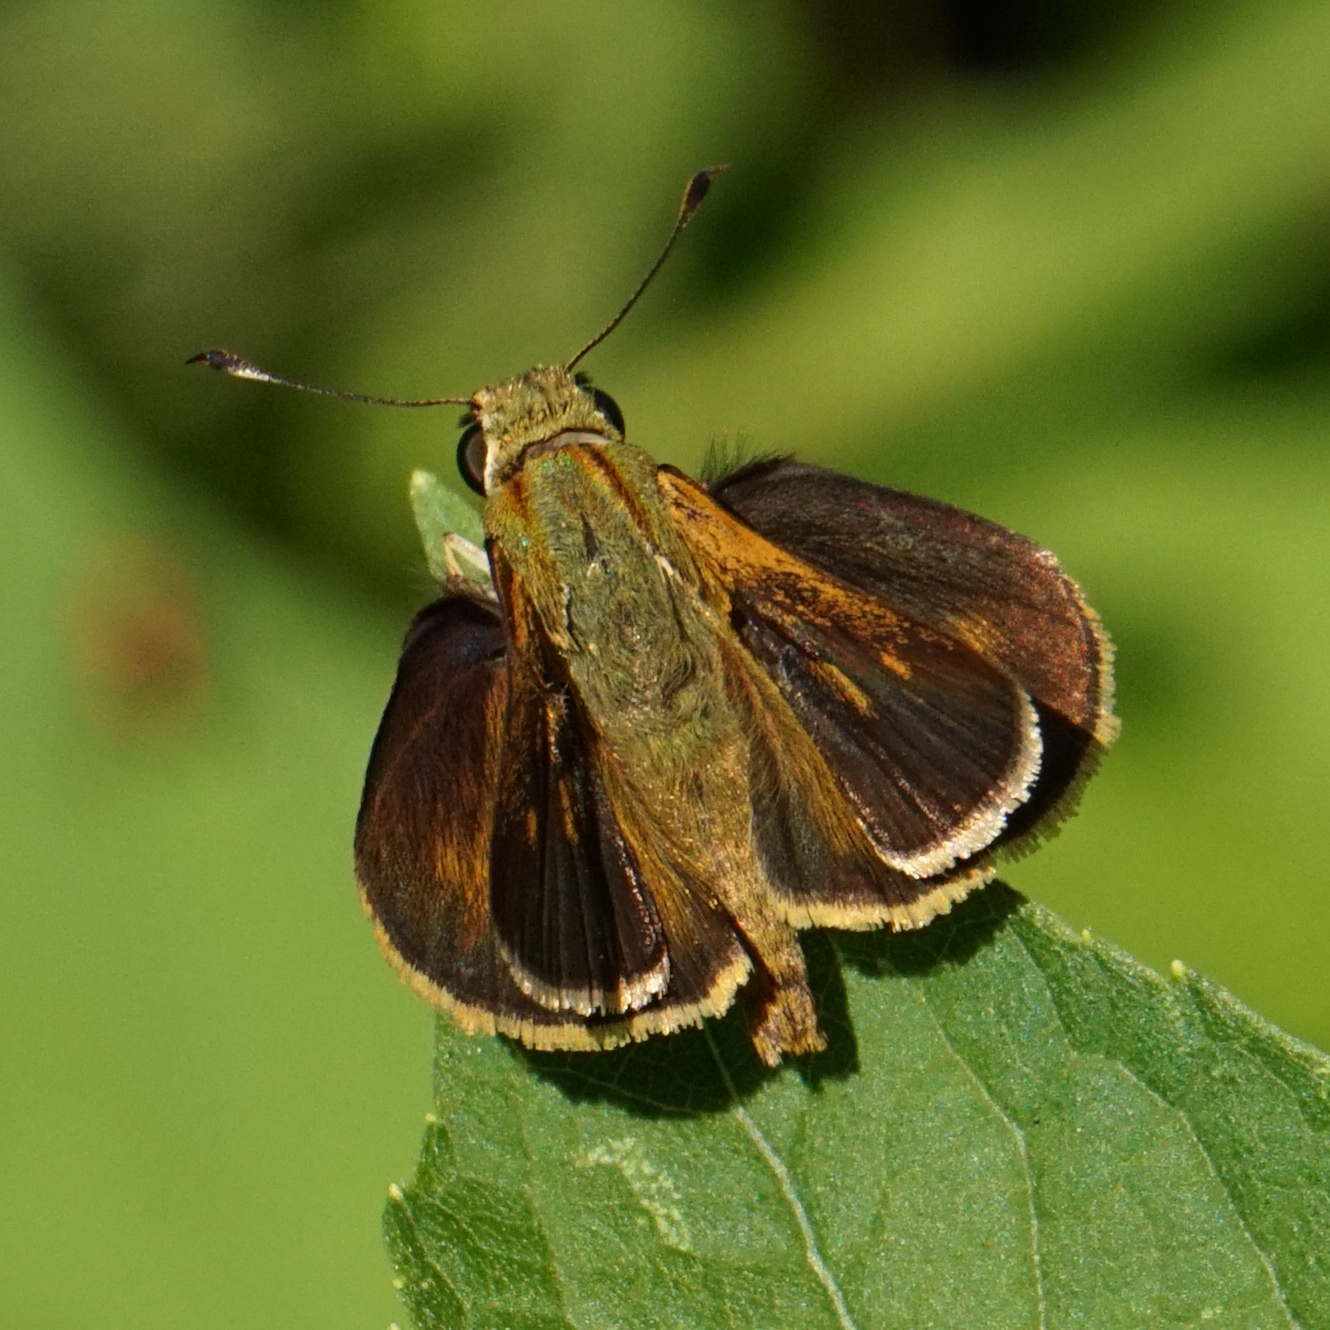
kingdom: Animalia
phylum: Arthropoda
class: Insecta
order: Lepidoptera
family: Hesperiidae
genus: Polites
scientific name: Polites otho
